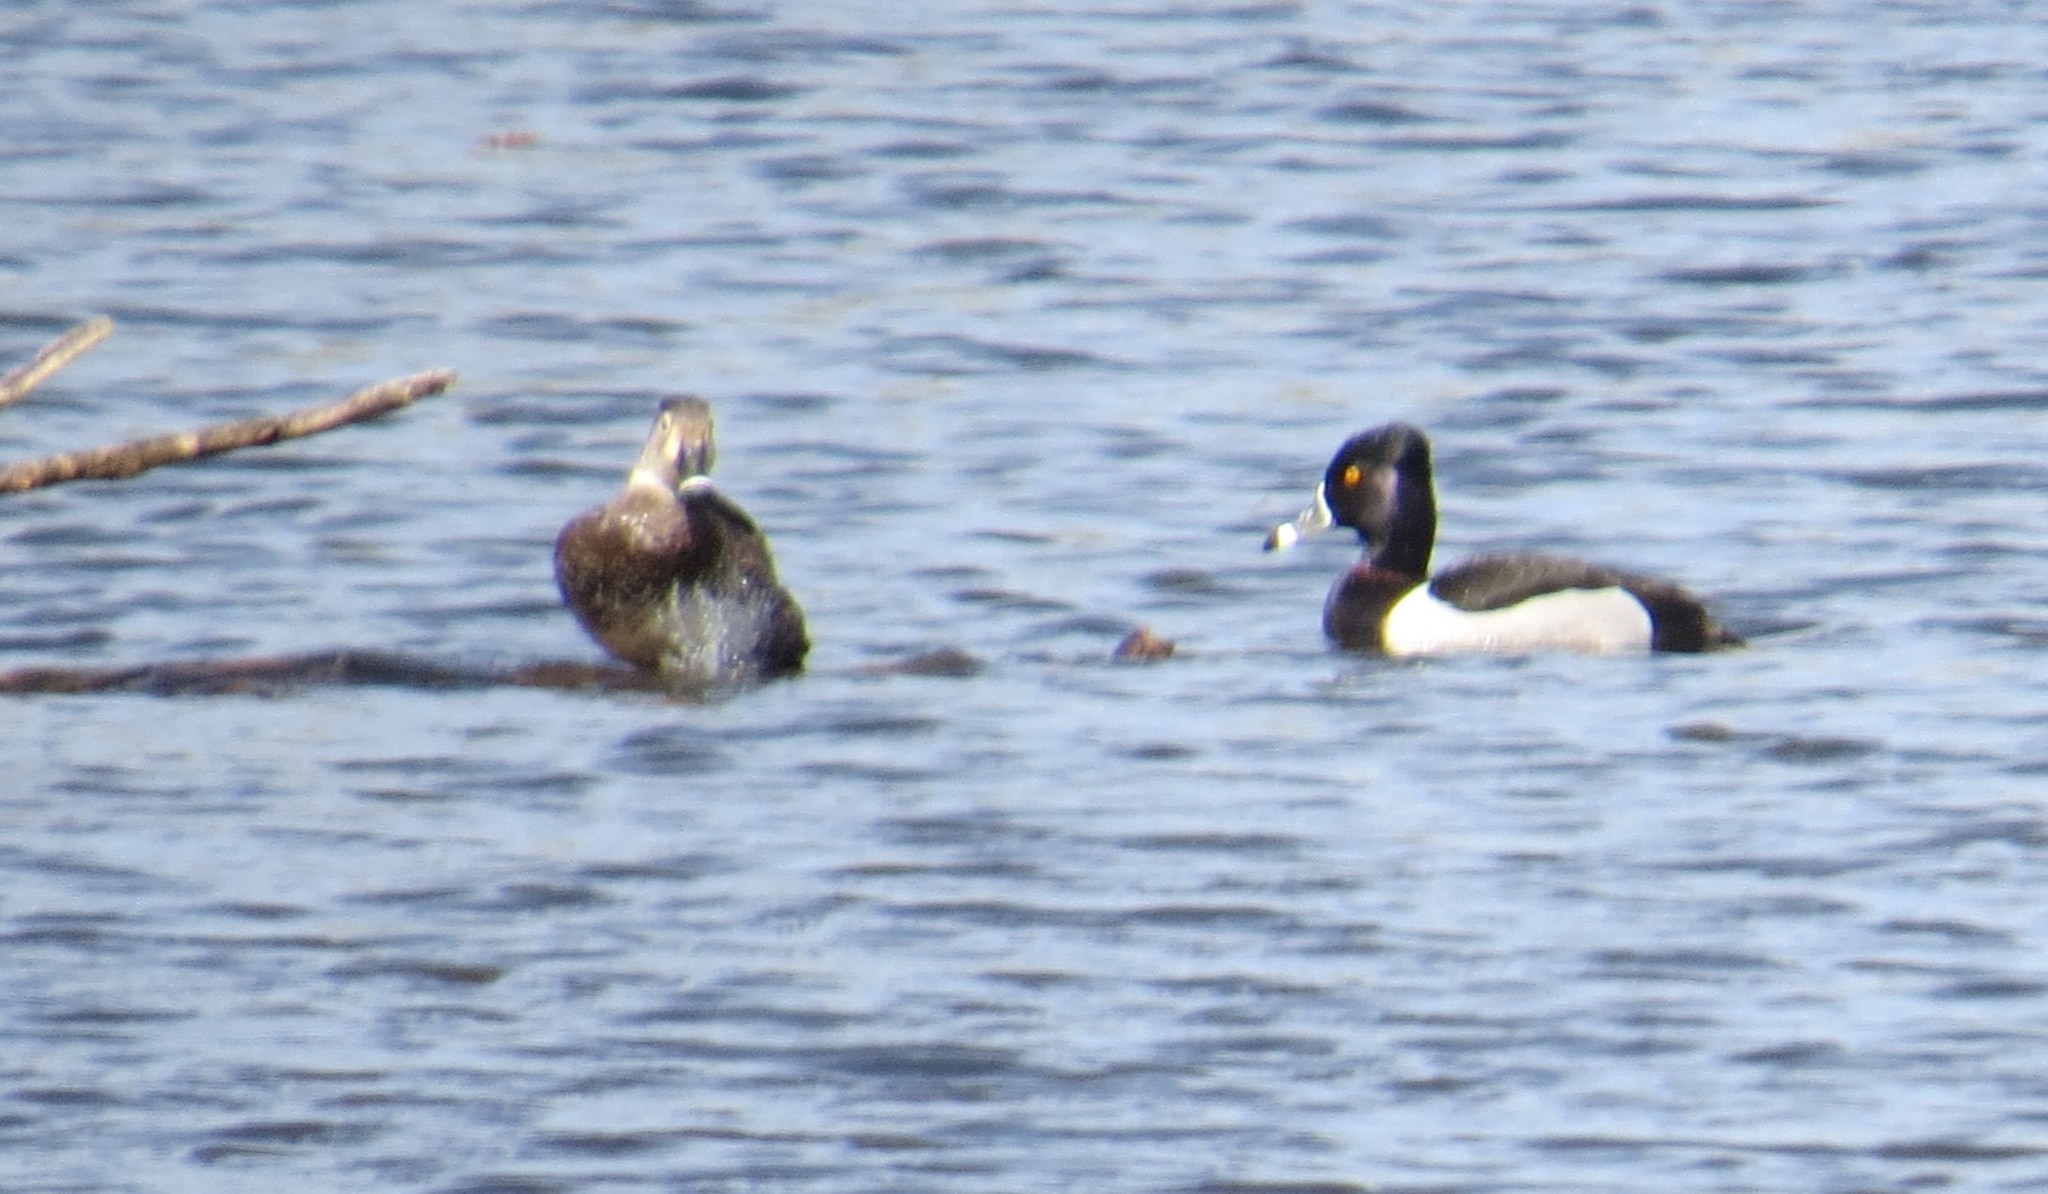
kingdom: Animalia
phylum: Chordata
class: Aves
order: Anseriformes
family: Anatidae
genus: Aythya
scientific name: Aythya collaris
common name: Ring-necked duck
